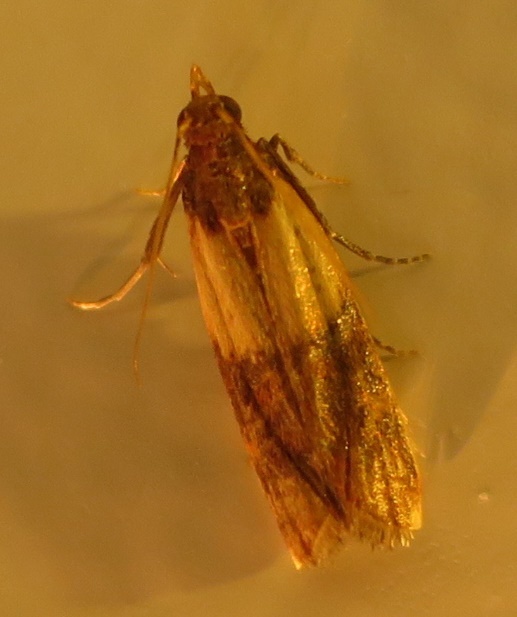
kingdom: Animalia
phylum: Arthropoda
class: Insecta
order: Lepidoptera
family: Pyralidae
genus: Plodia
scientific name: Plodia interpunctella
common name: Indian meal moth
